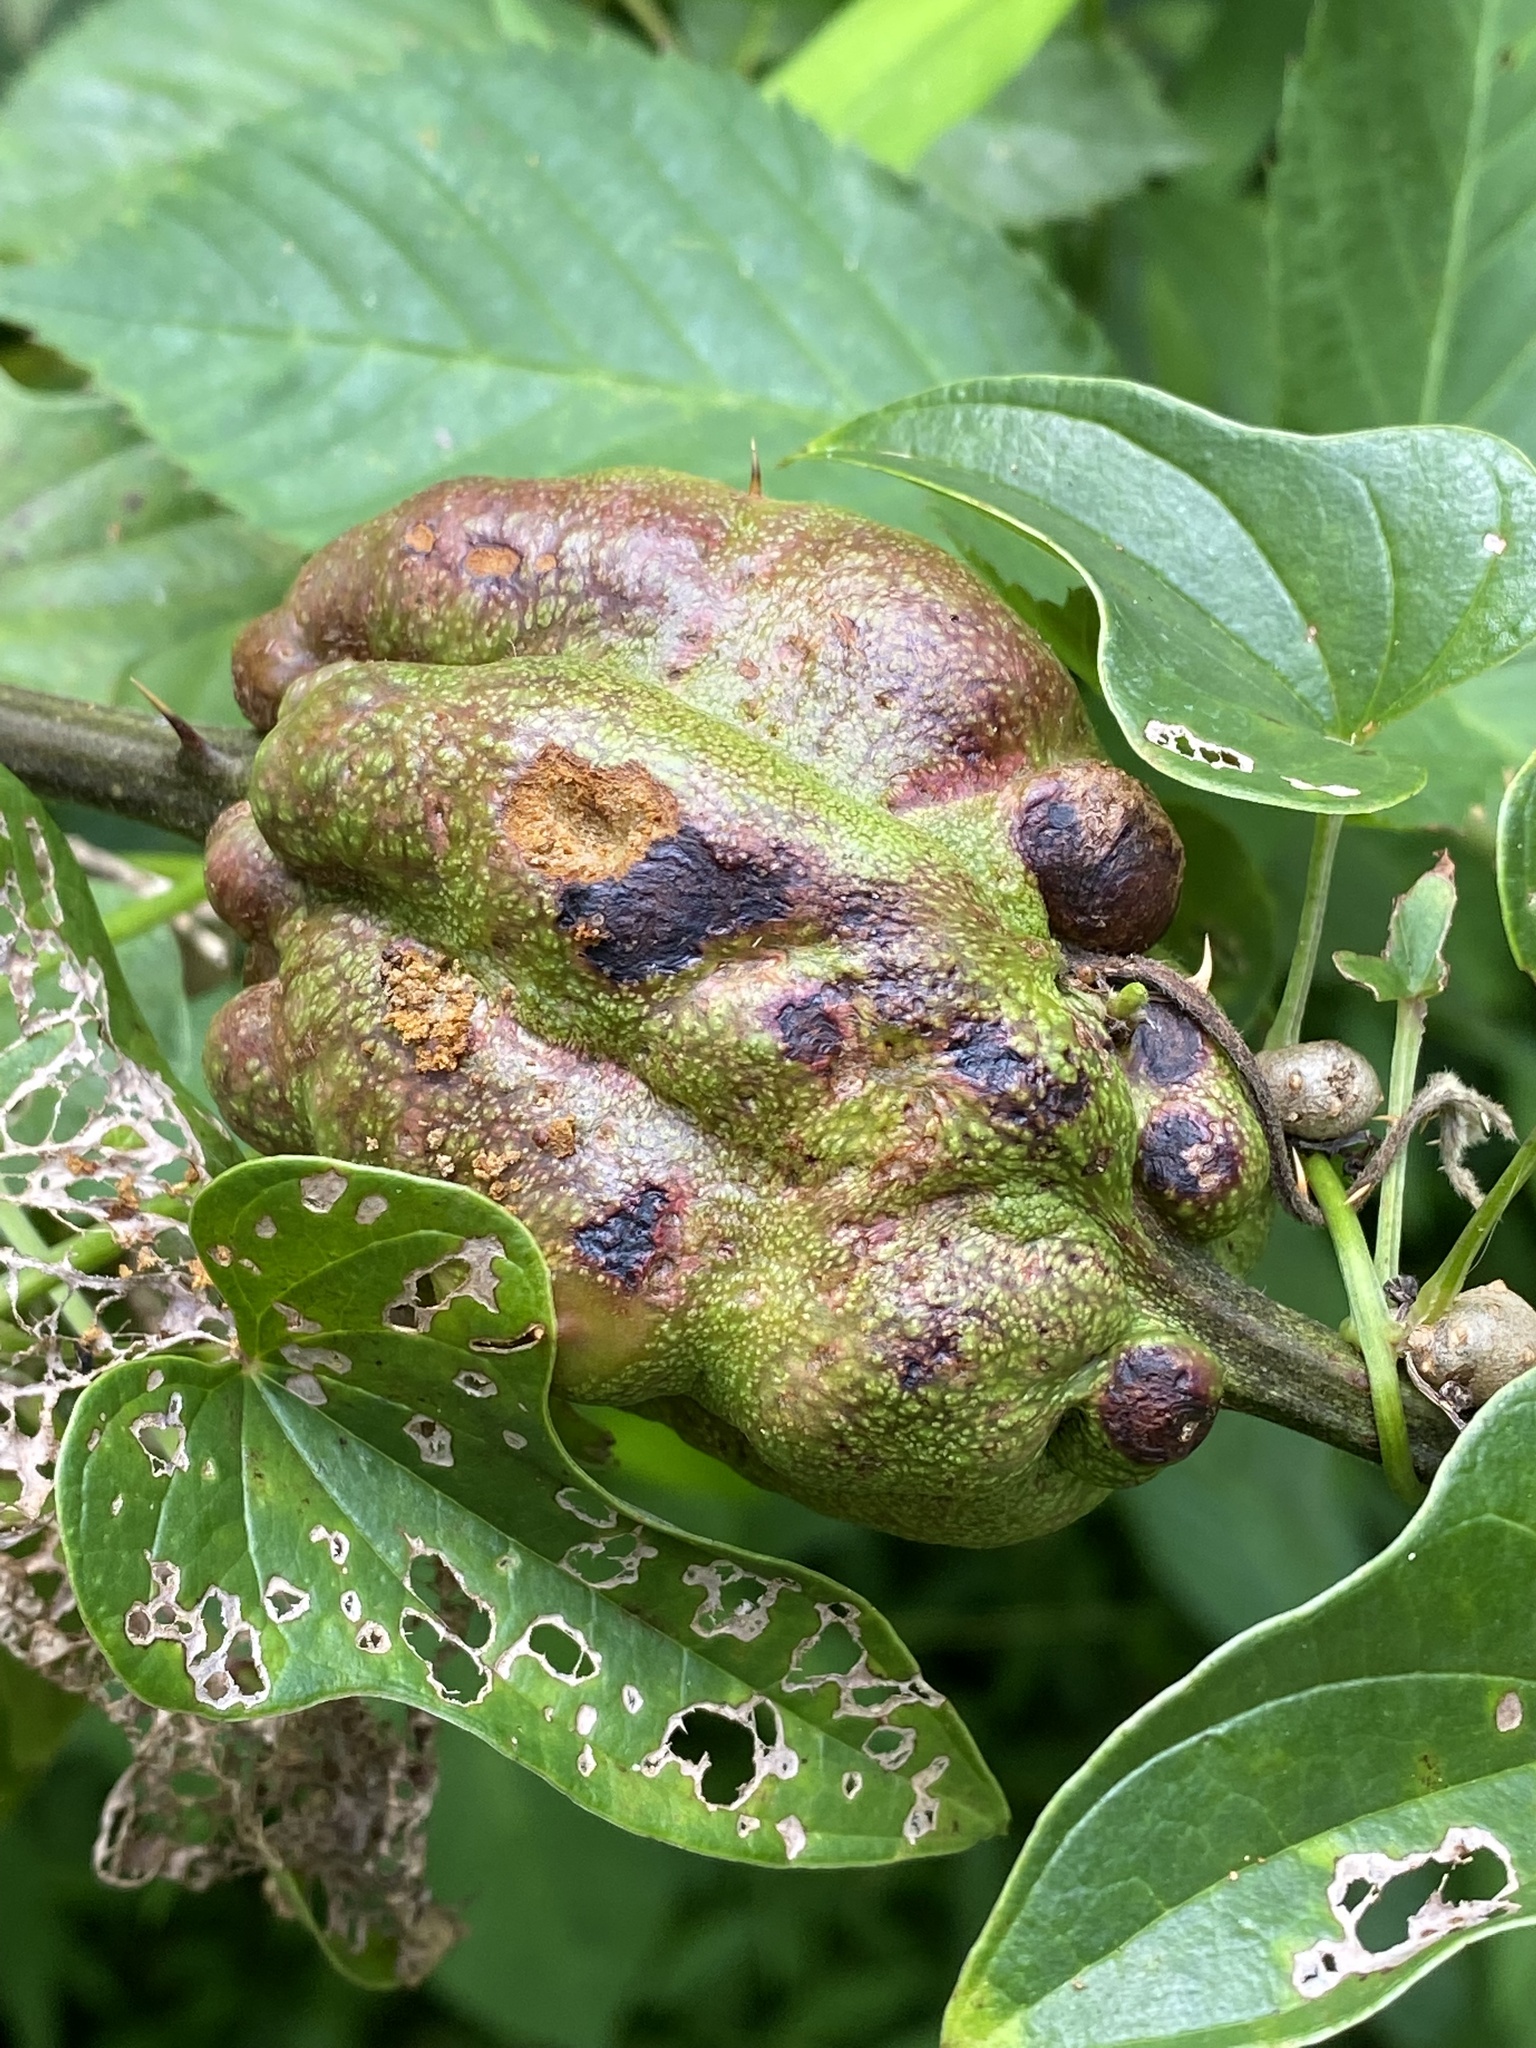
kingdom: Animalia
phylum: Arthropoda
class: Insecta
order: Hymenoptera
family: Cynipidae
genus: Diastrophus
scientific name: Diastrophus
